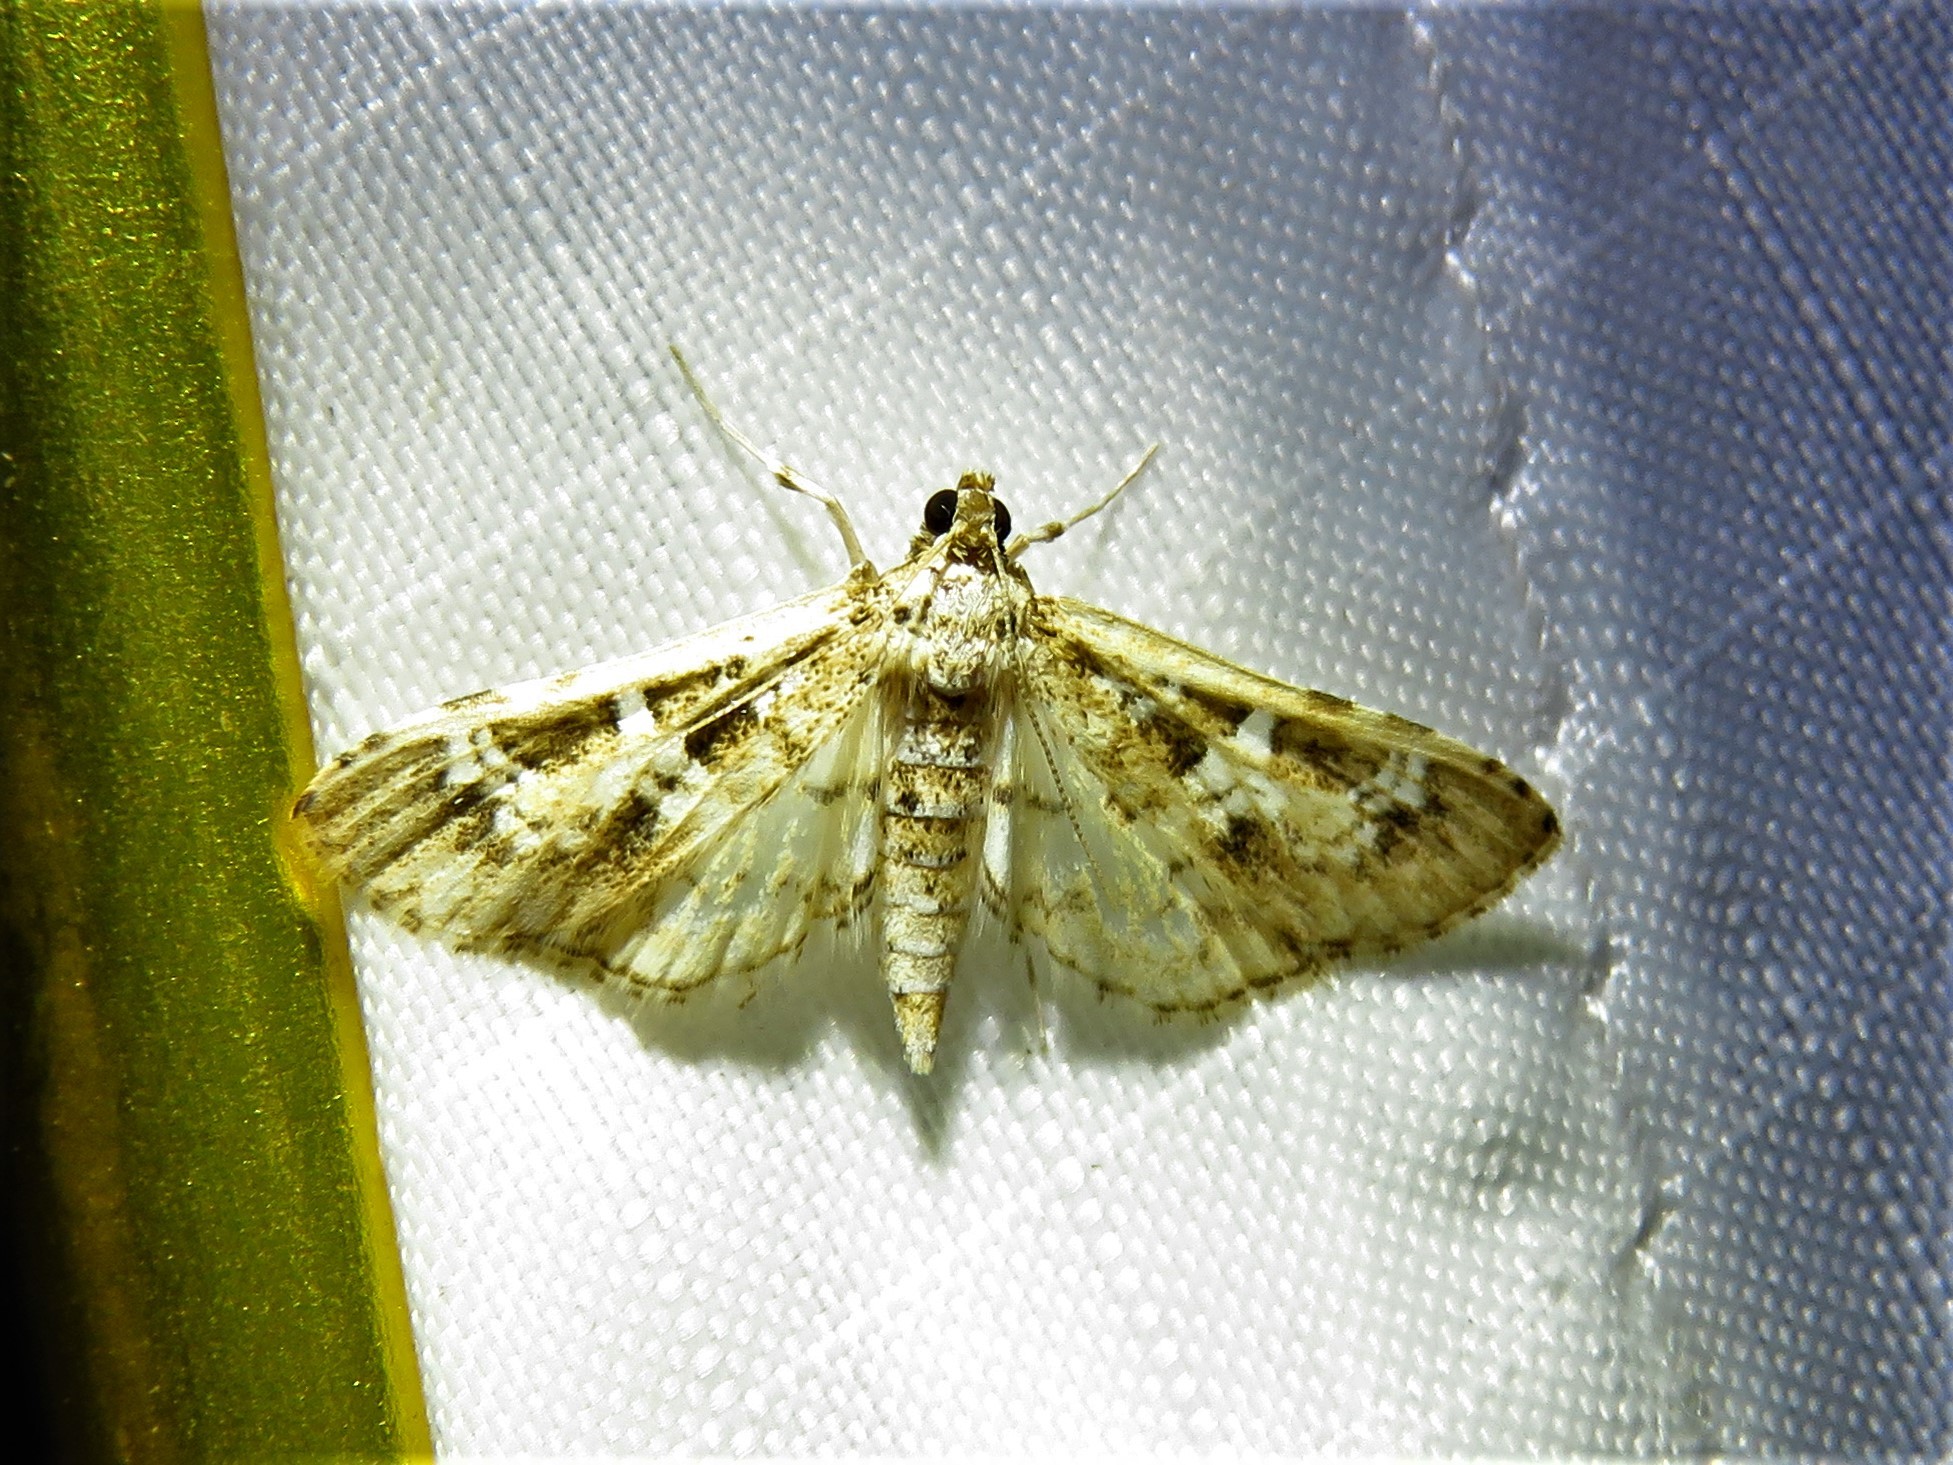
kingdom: Animalia
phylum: Arthropoda
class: Insecta
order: Lepidoptera
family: Crambidae
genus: Samea
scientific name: Samea multiplicalis
